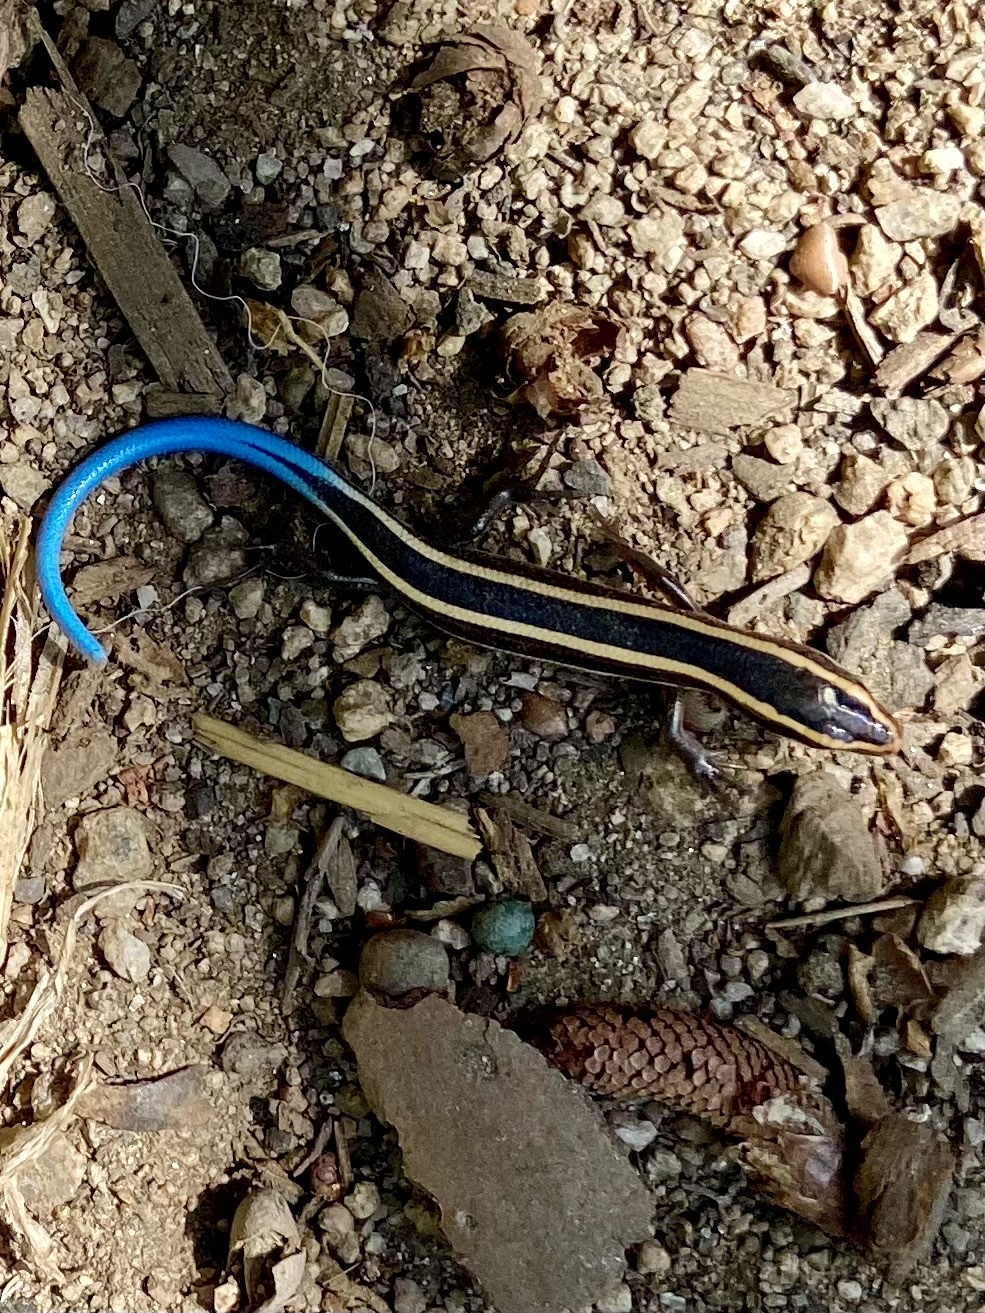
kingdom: Animalia
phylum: Chordata
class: Squamata
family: Scincidae
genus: Plestiodon
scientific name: Plestiodon skiltonianus
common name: Coronado island skink [interparietalis]
